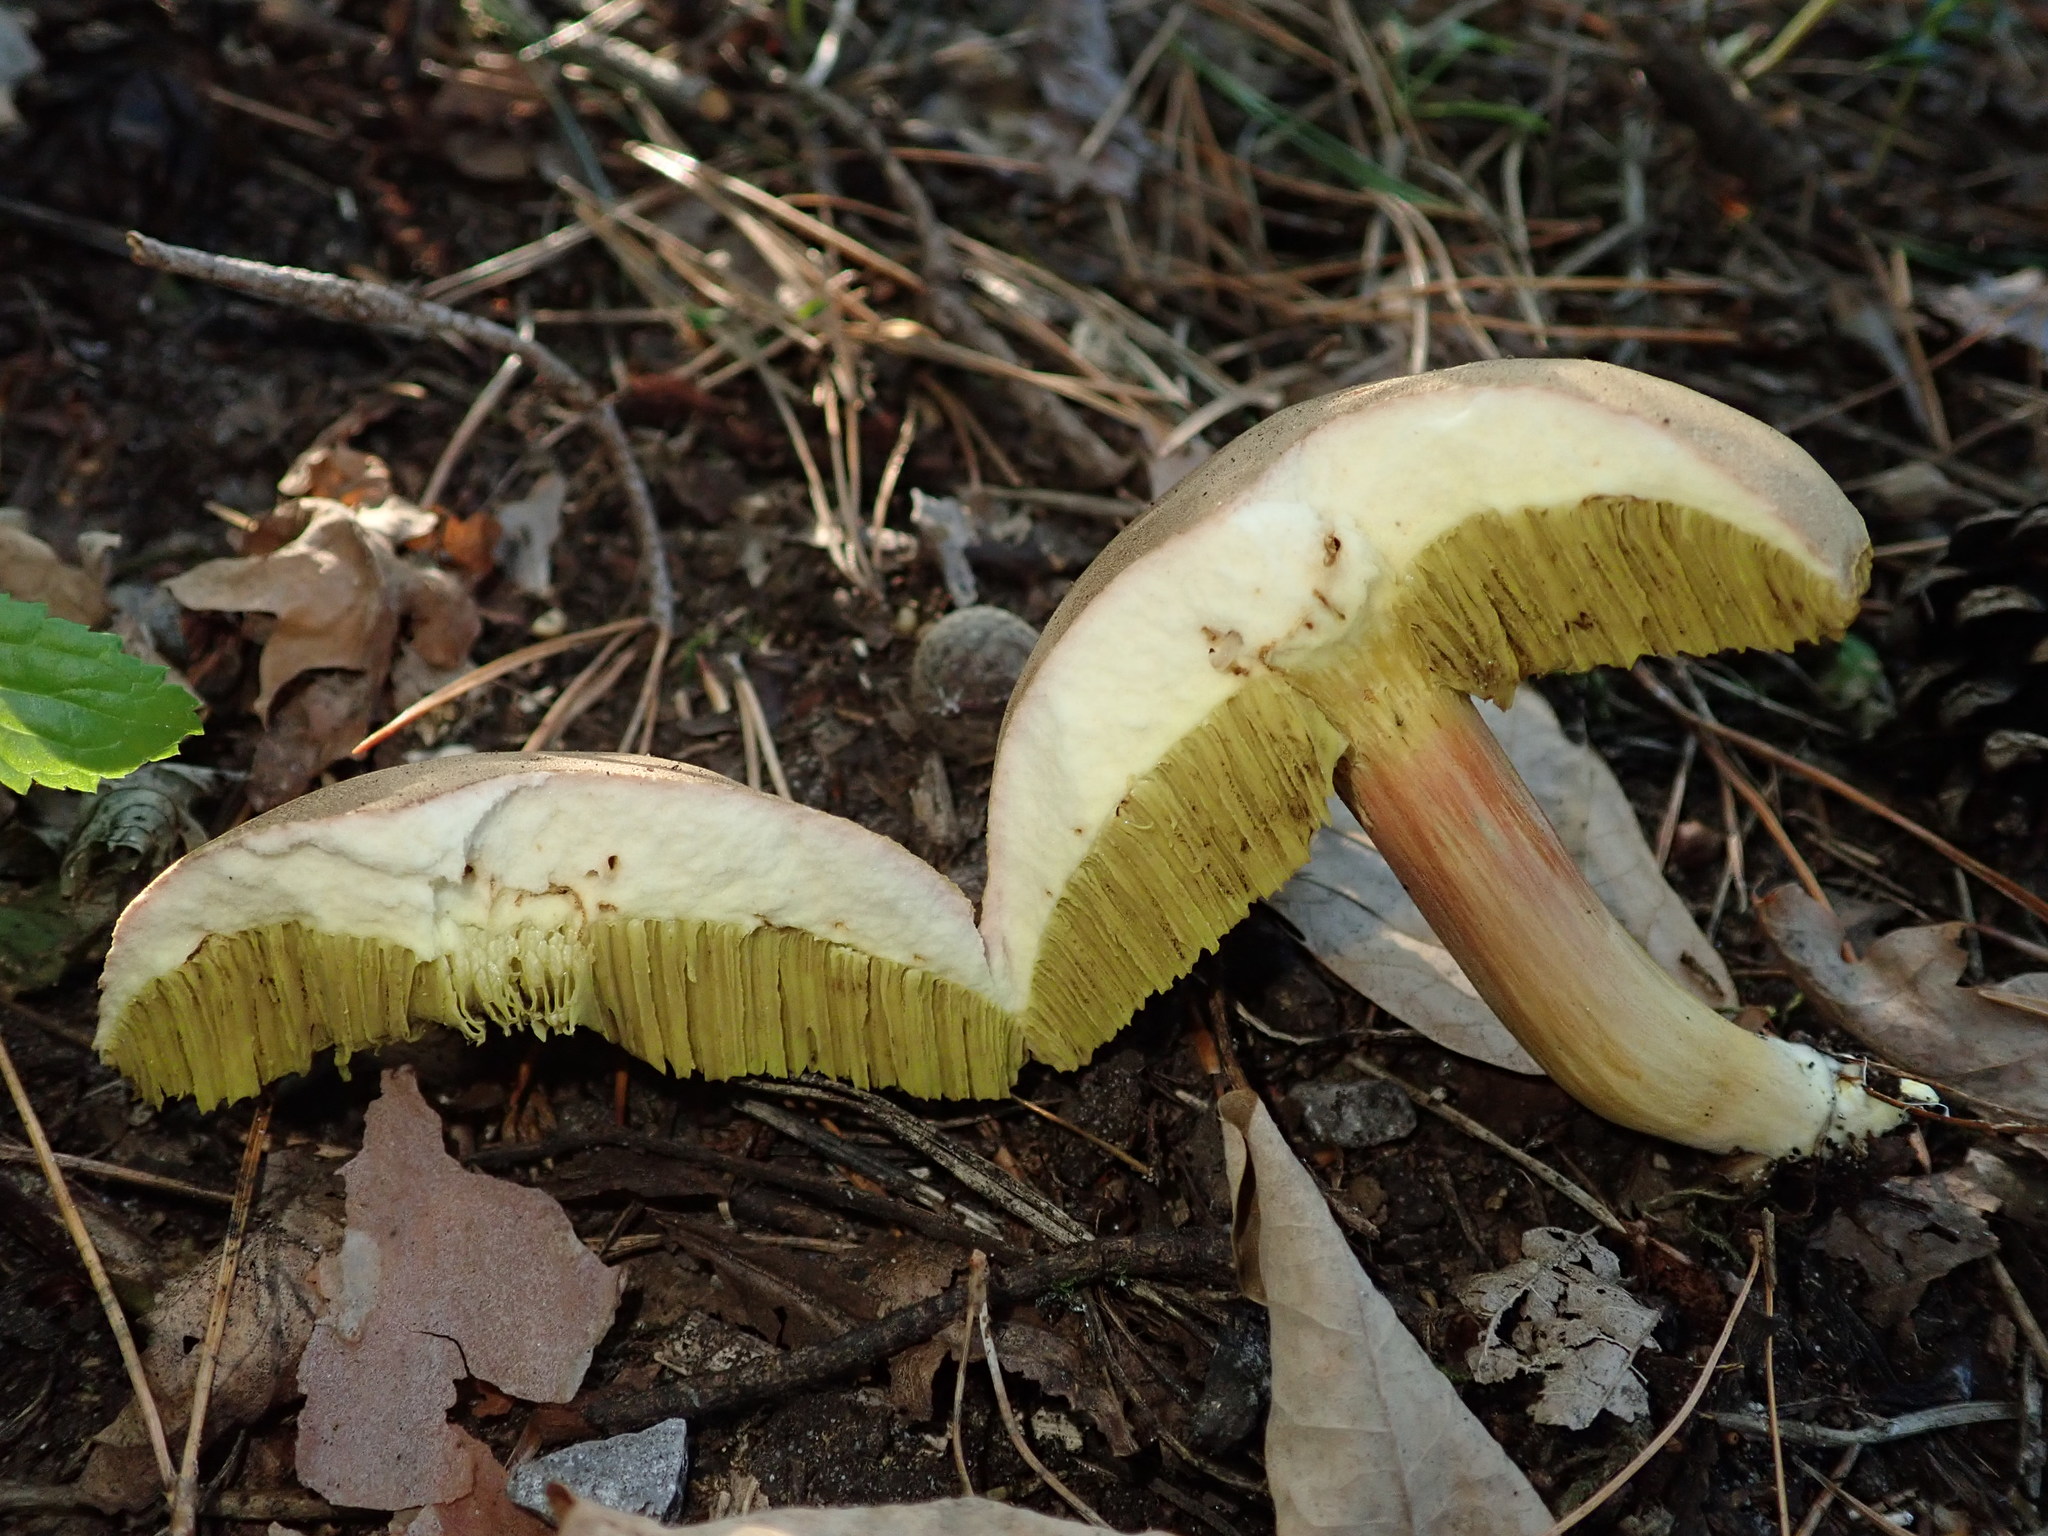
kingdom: Fungi
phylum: Basidiomycota
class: Agaricomycetes
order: Boletales
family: Boletaceae
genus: Xerocomellus
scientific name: Xerocomellus chrysenteron
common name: Red-cracking bolete
